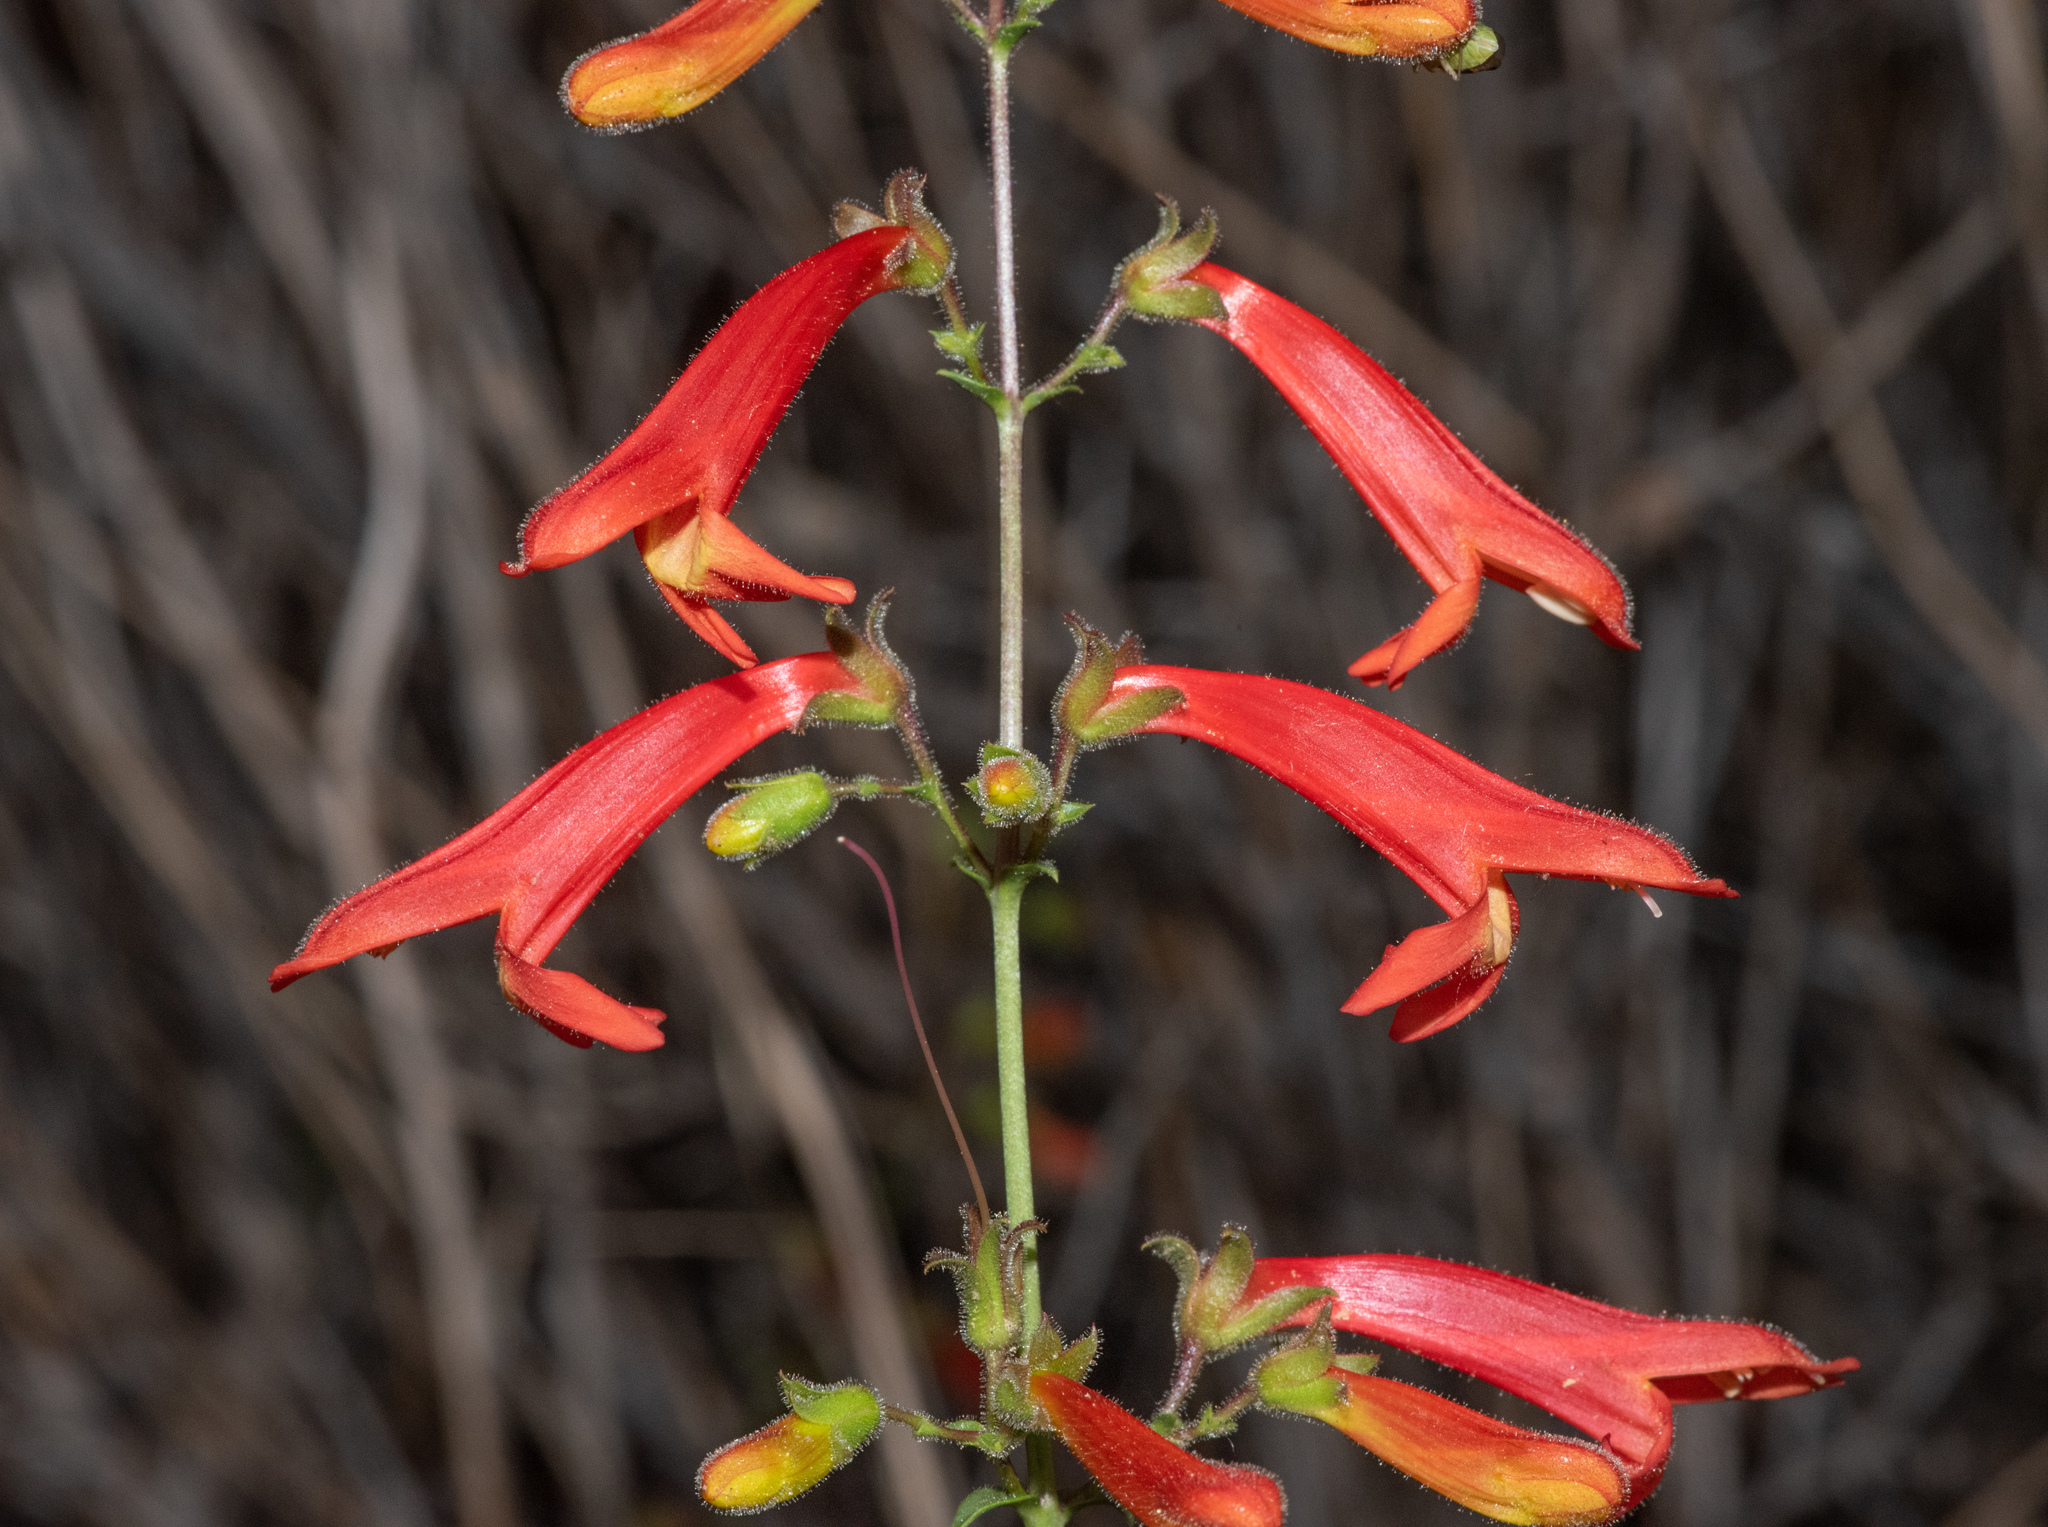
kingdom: Plantae
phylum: Tracheophyta
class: Magnoliopsida
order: Lamiales
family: Plantaginaceae
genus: Penstemon
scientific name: Penstemon rostriflorus
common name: Bridges's penstemon
